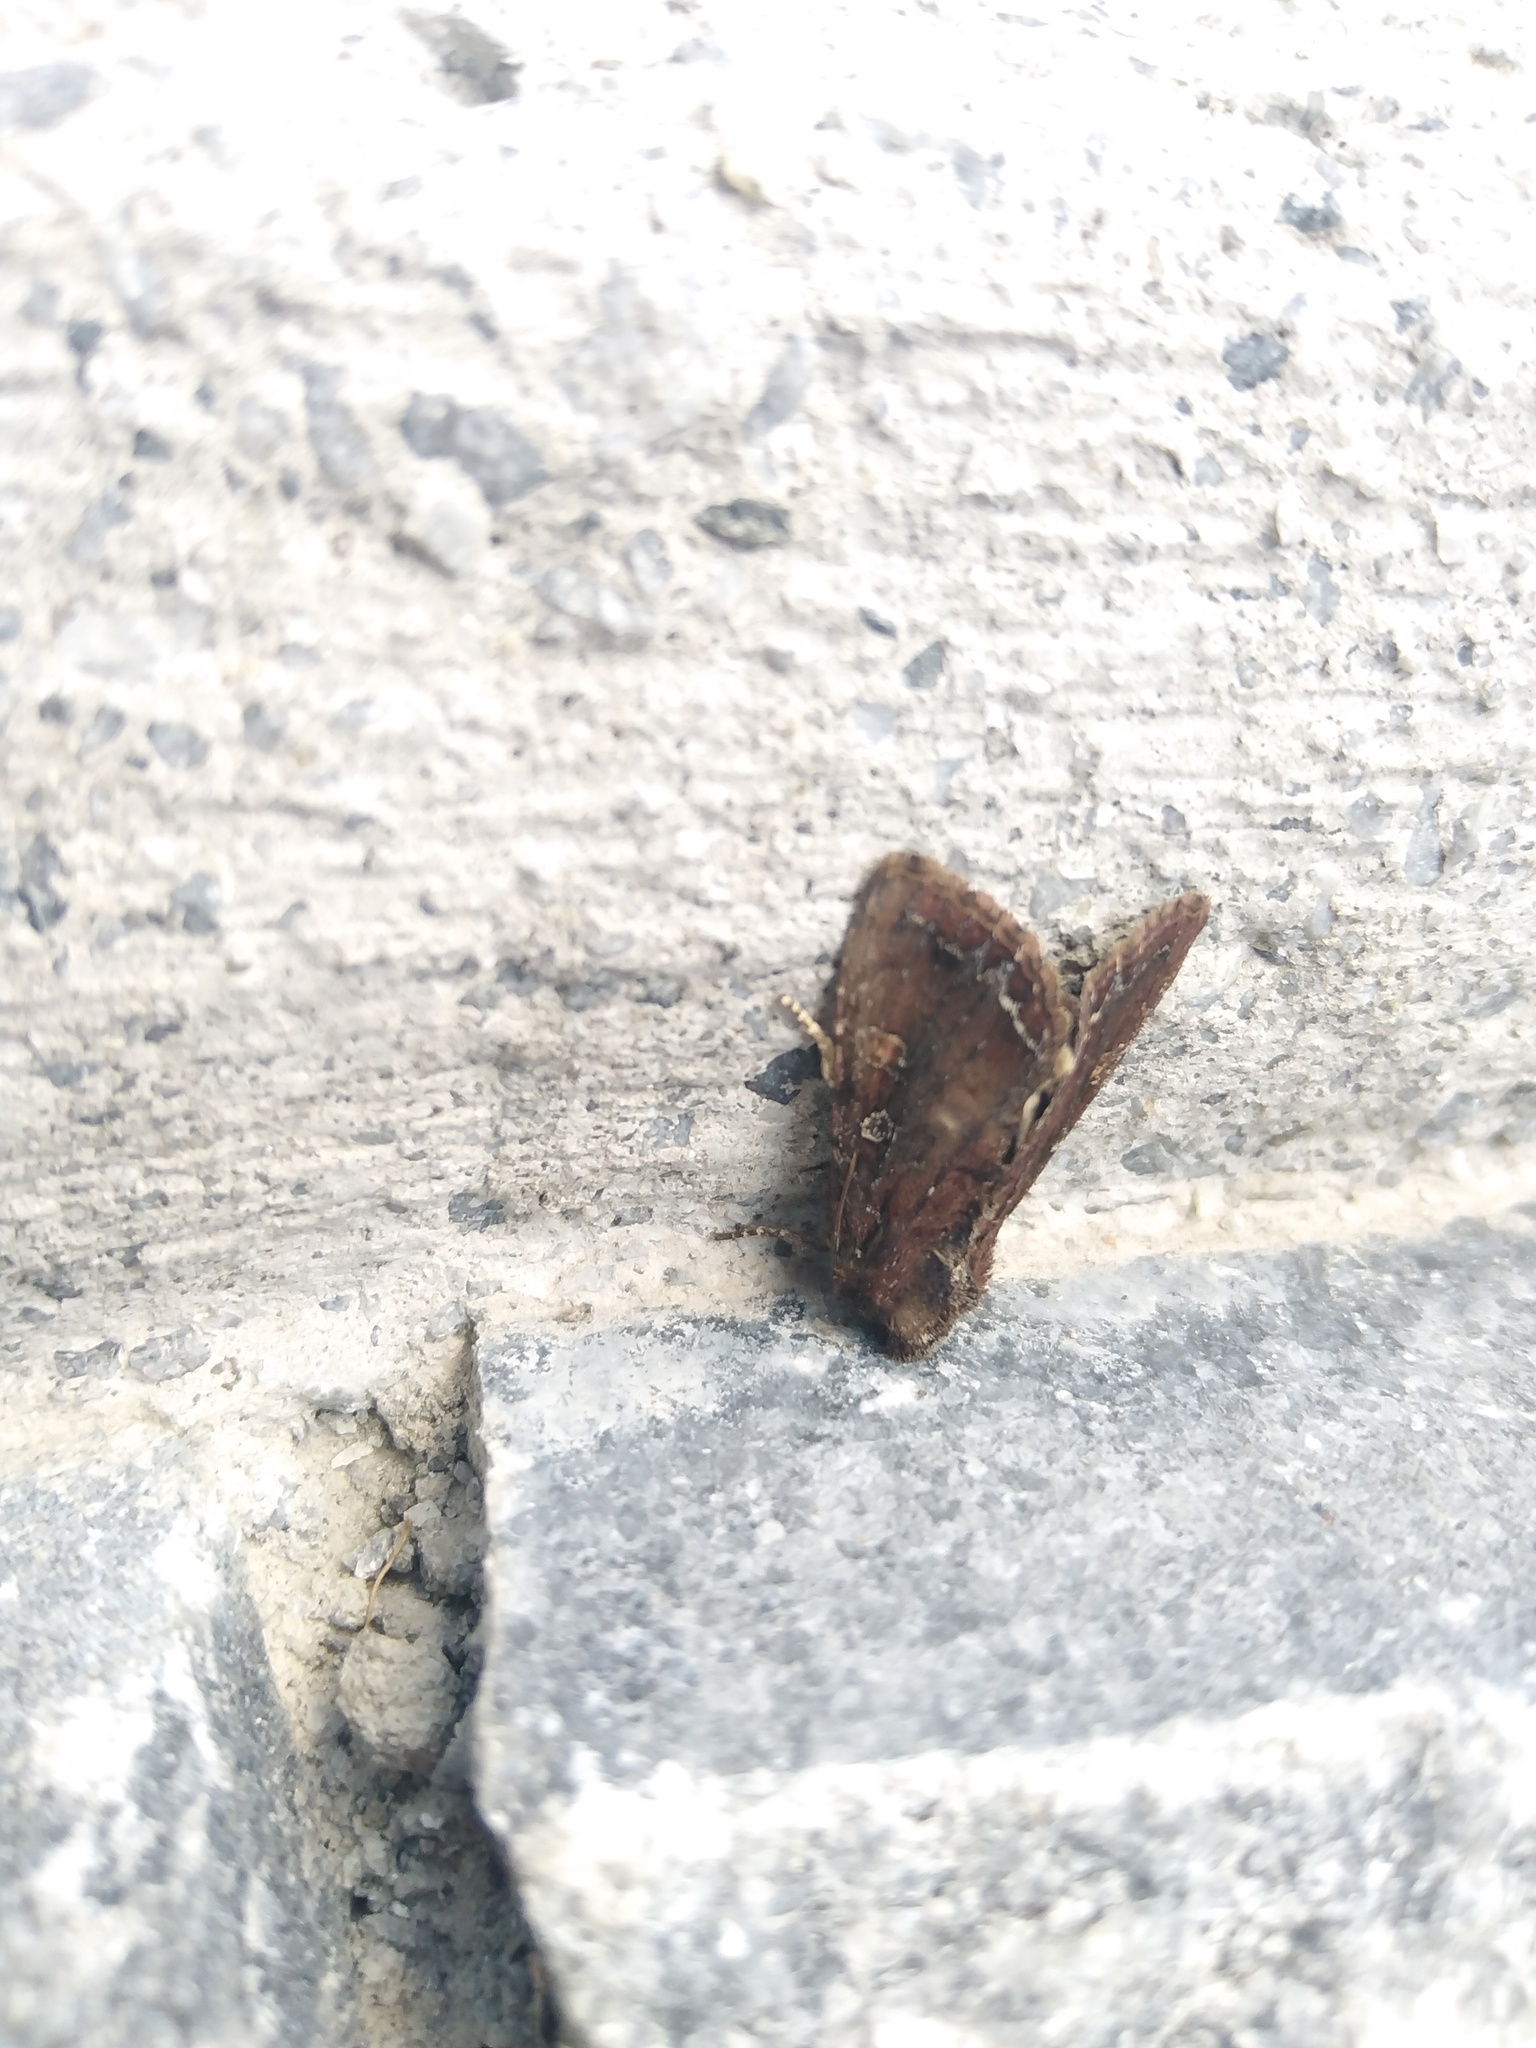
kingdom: Animalia
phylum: Arthropoda
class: Insecta
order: Lepidoptera
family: Noctuidae
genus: Lacanobia
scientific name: Lacanobia oleracea
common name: Bright-line brown-eye
